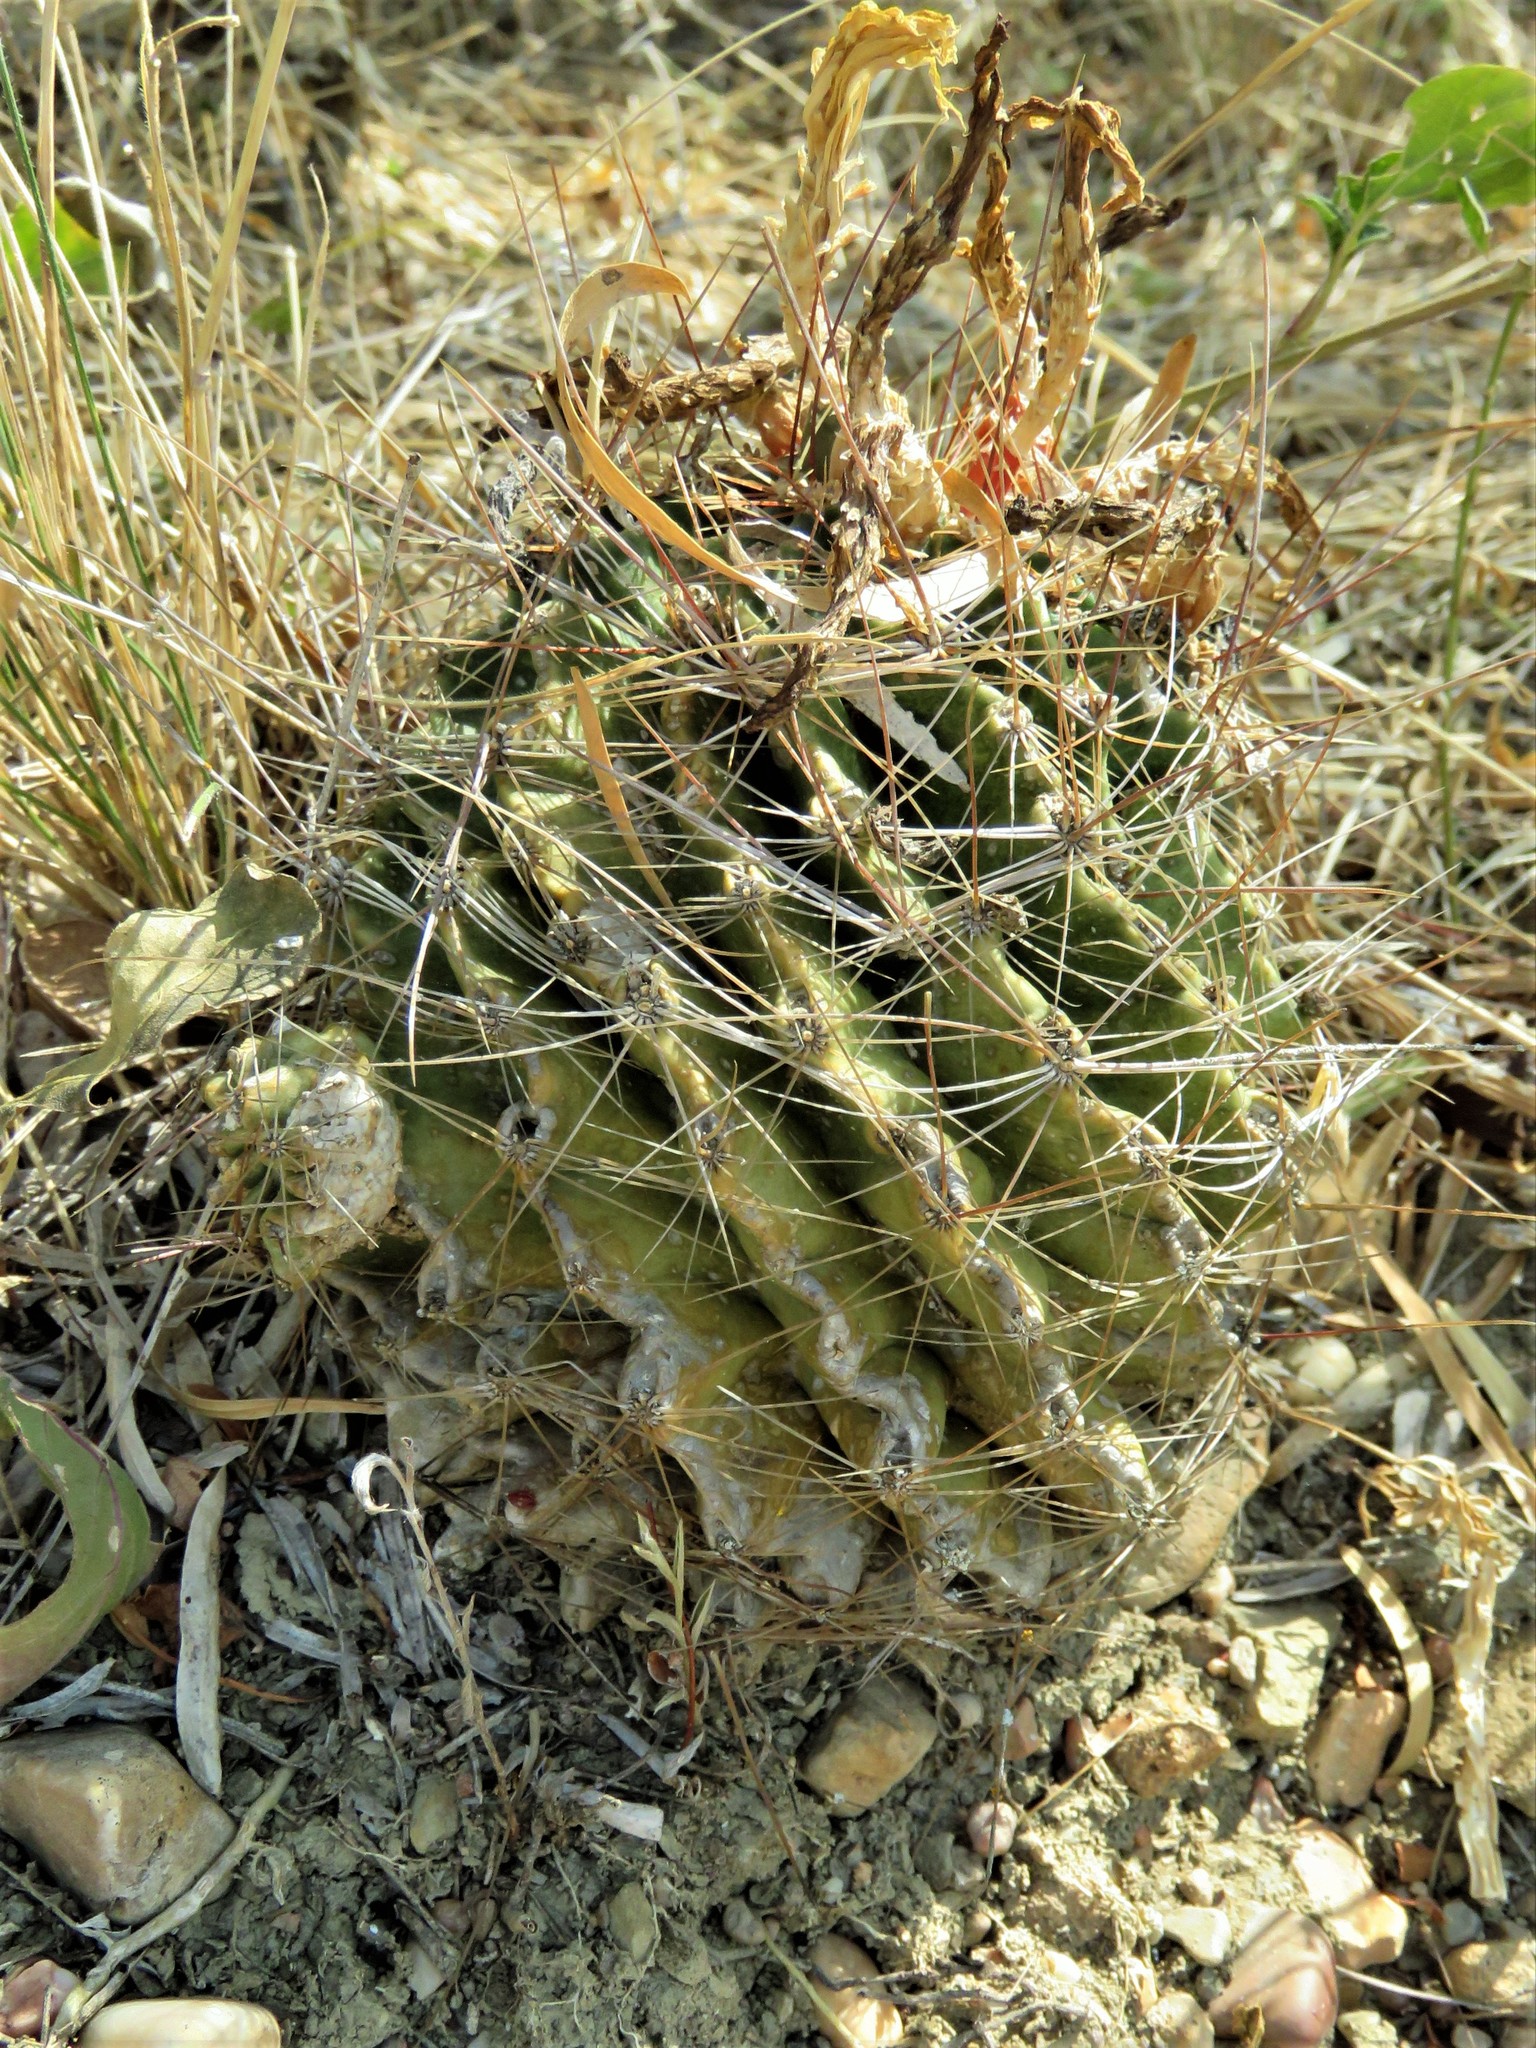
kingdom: Plantae
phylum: Tracheophyta
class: Magnoliopsida
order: Caryophyllales
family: Cactaceae
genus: Thelocactus
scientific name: Thelocactus setispinus
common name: Miniature barrel cactus
